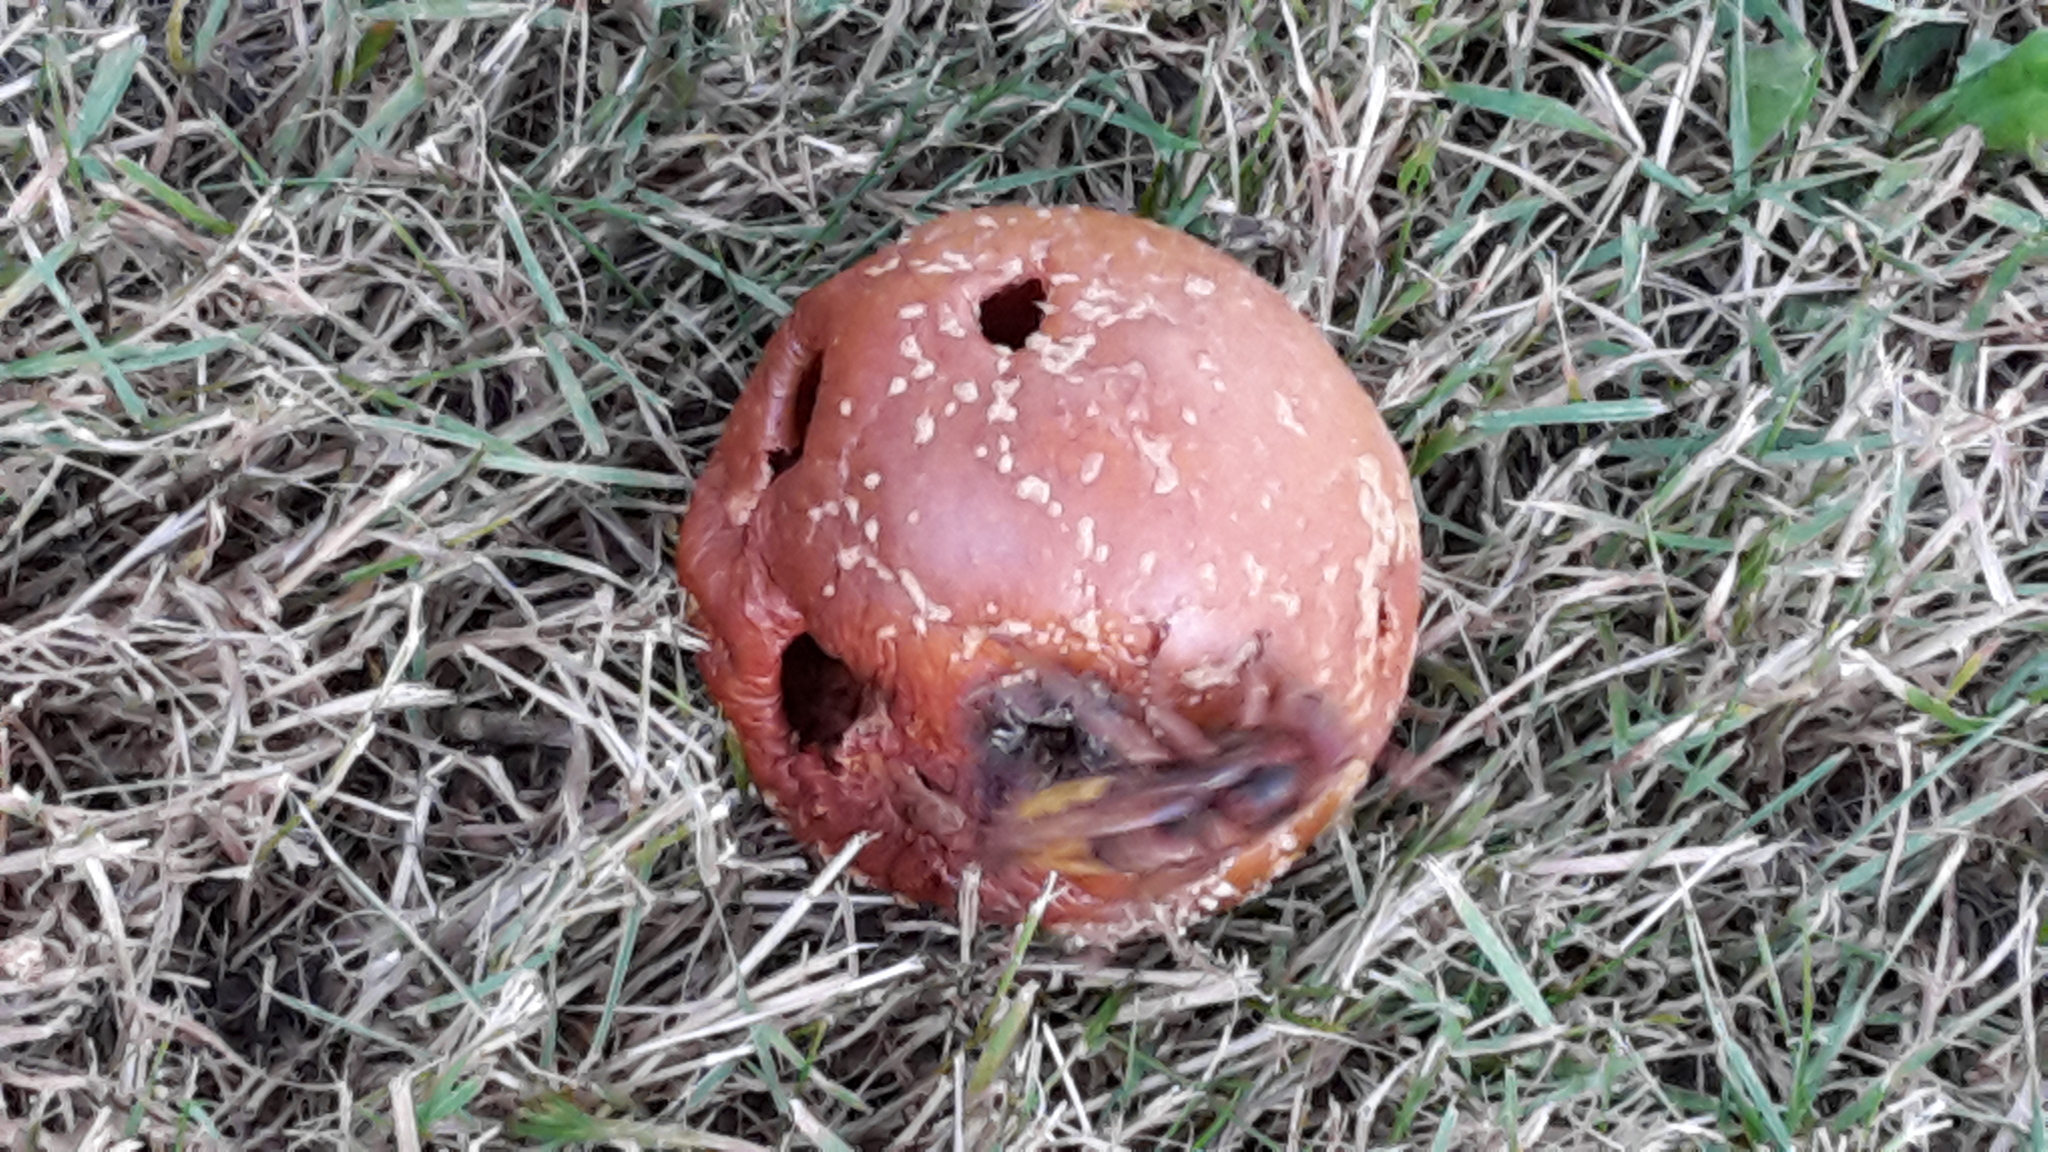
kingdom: Animalia
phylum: Arthropoda
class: Insecta
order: Hymenoptera
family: Vespidae
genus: Vespa
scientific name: Vespa crabro
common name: Hornet
